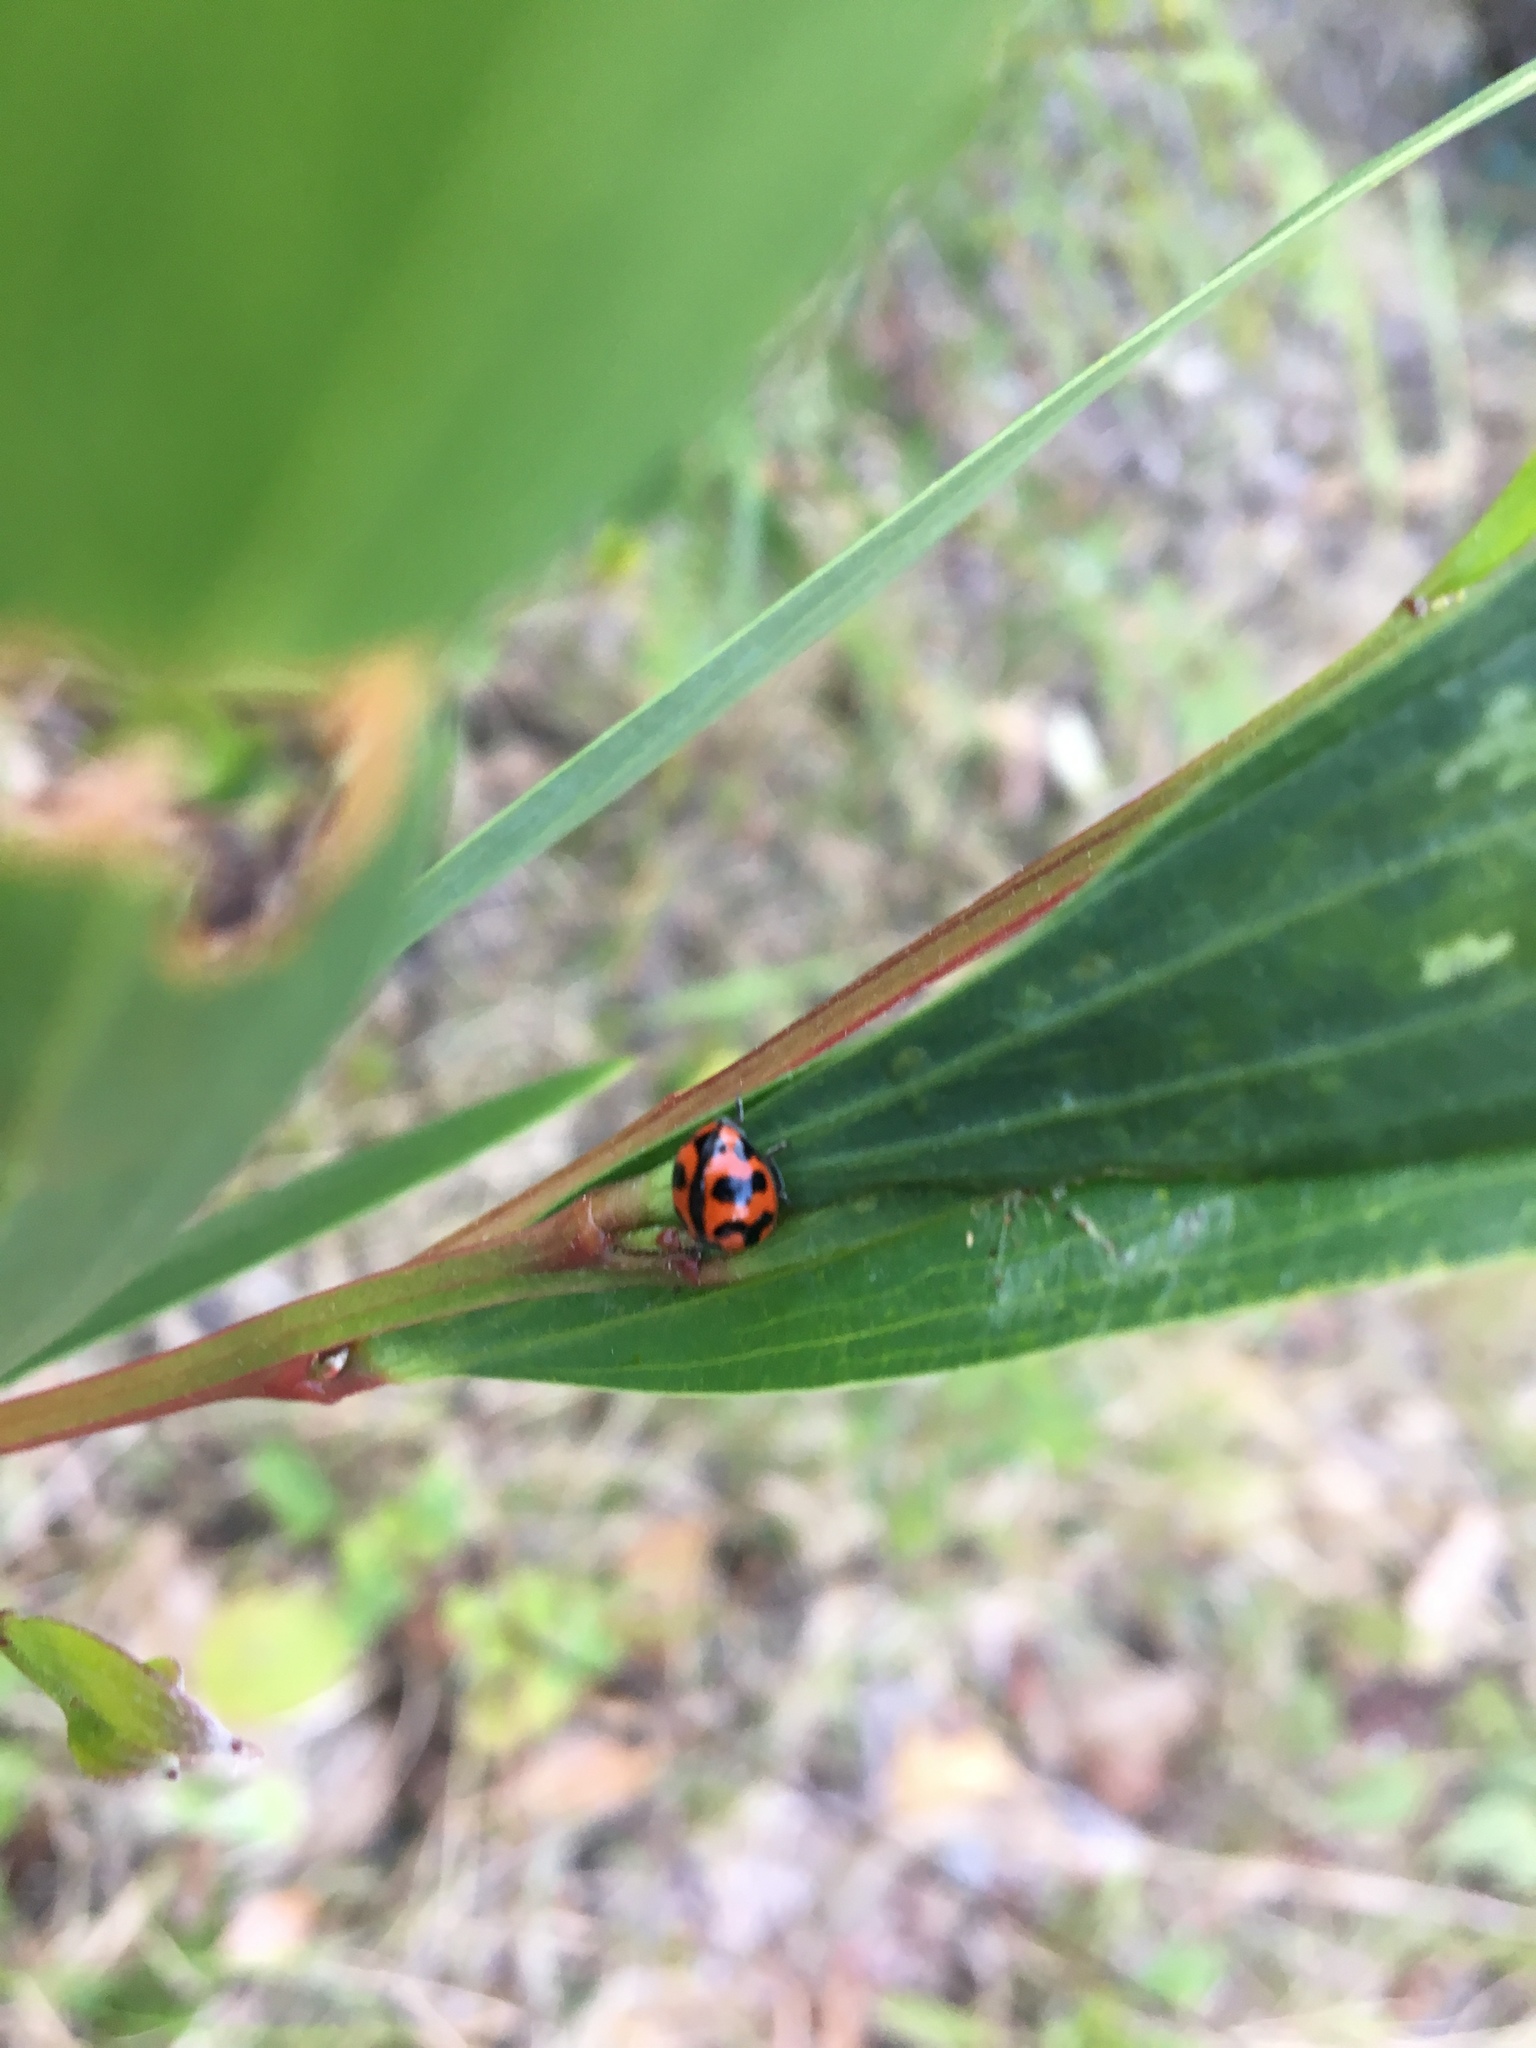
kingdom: Animalia
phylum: Arthropoda
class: Insecta
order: Coleoptera
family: Coccinellidae
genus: Coccinella
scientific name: Coccinella transversalis
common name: Transverse lady beetle
